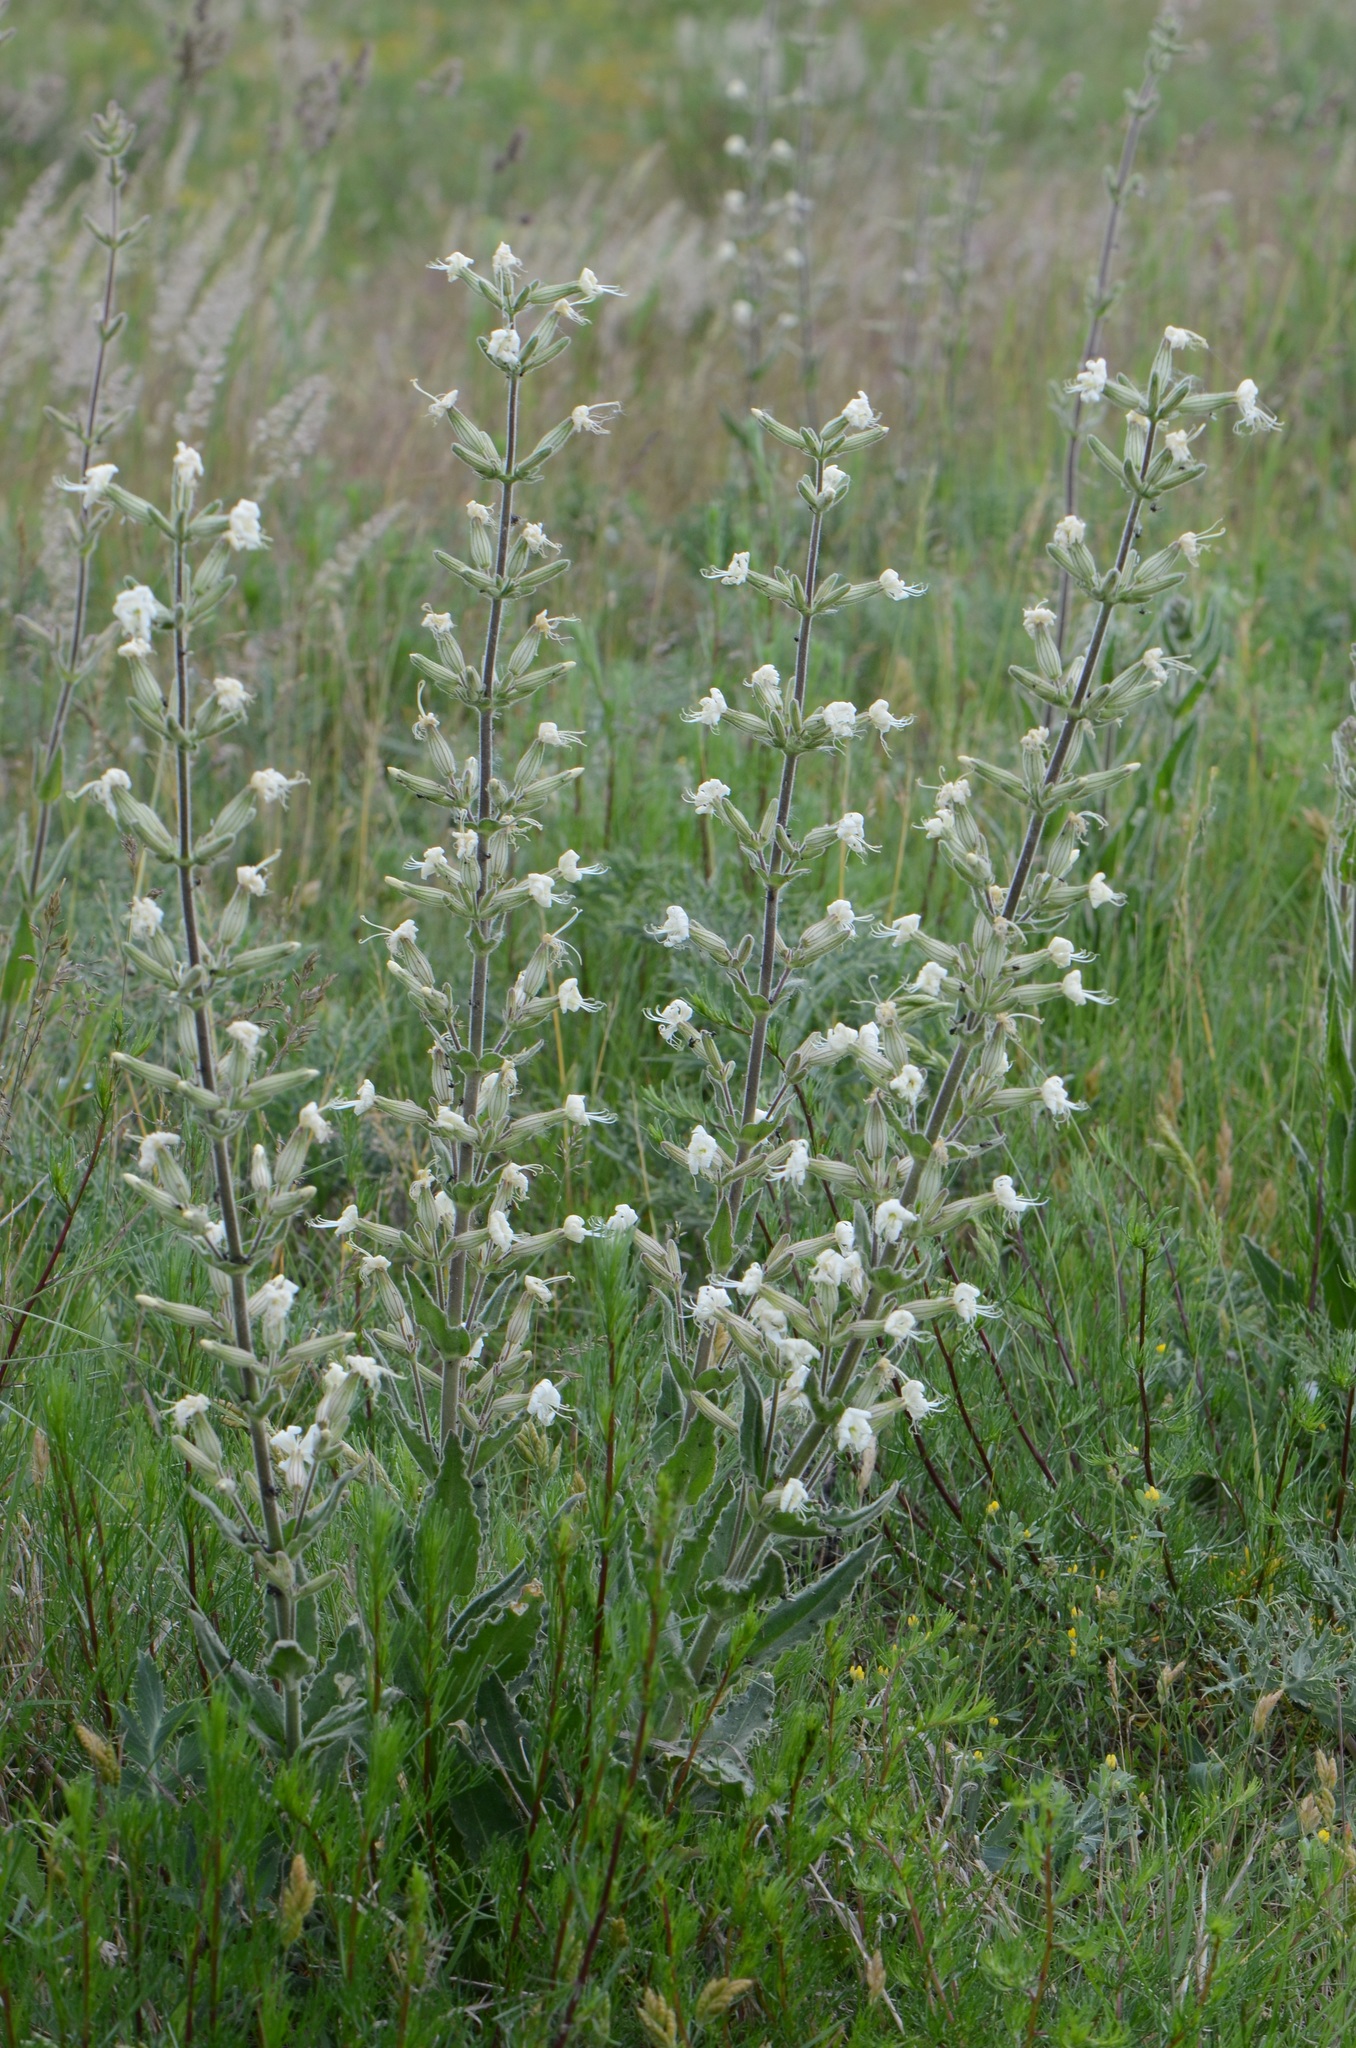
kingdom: Plantae
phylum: Tracheophyta
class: Magnoliopsida
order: Caryophyllales
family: Caryophyllaceae
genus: Silene
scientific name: Silene viscosa
